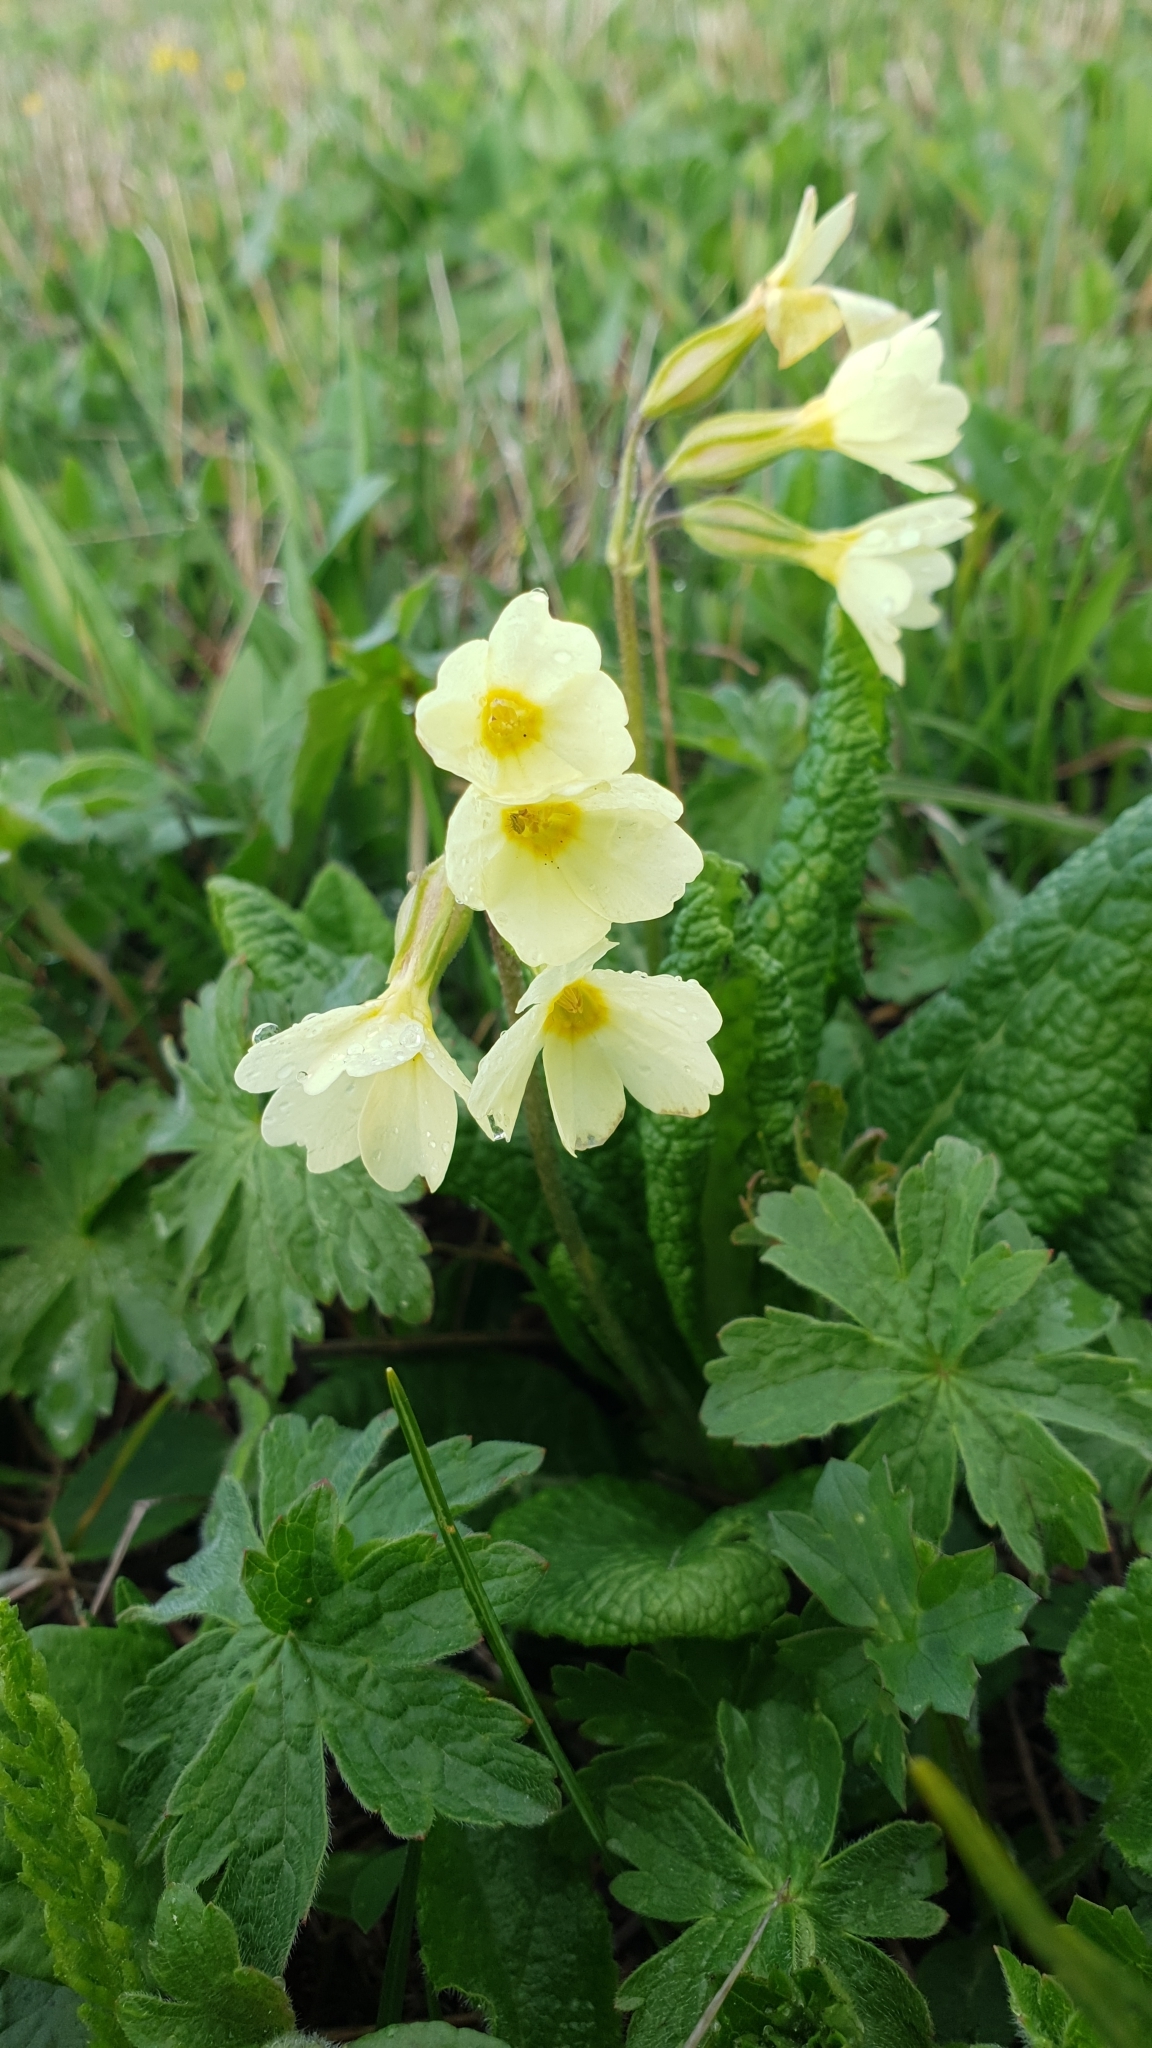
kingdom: Plantae
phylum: Tracheophyta
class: Magnoliopsida
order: Ericales
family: Primulaceae
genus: Primula
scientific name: Primula cordifolia
